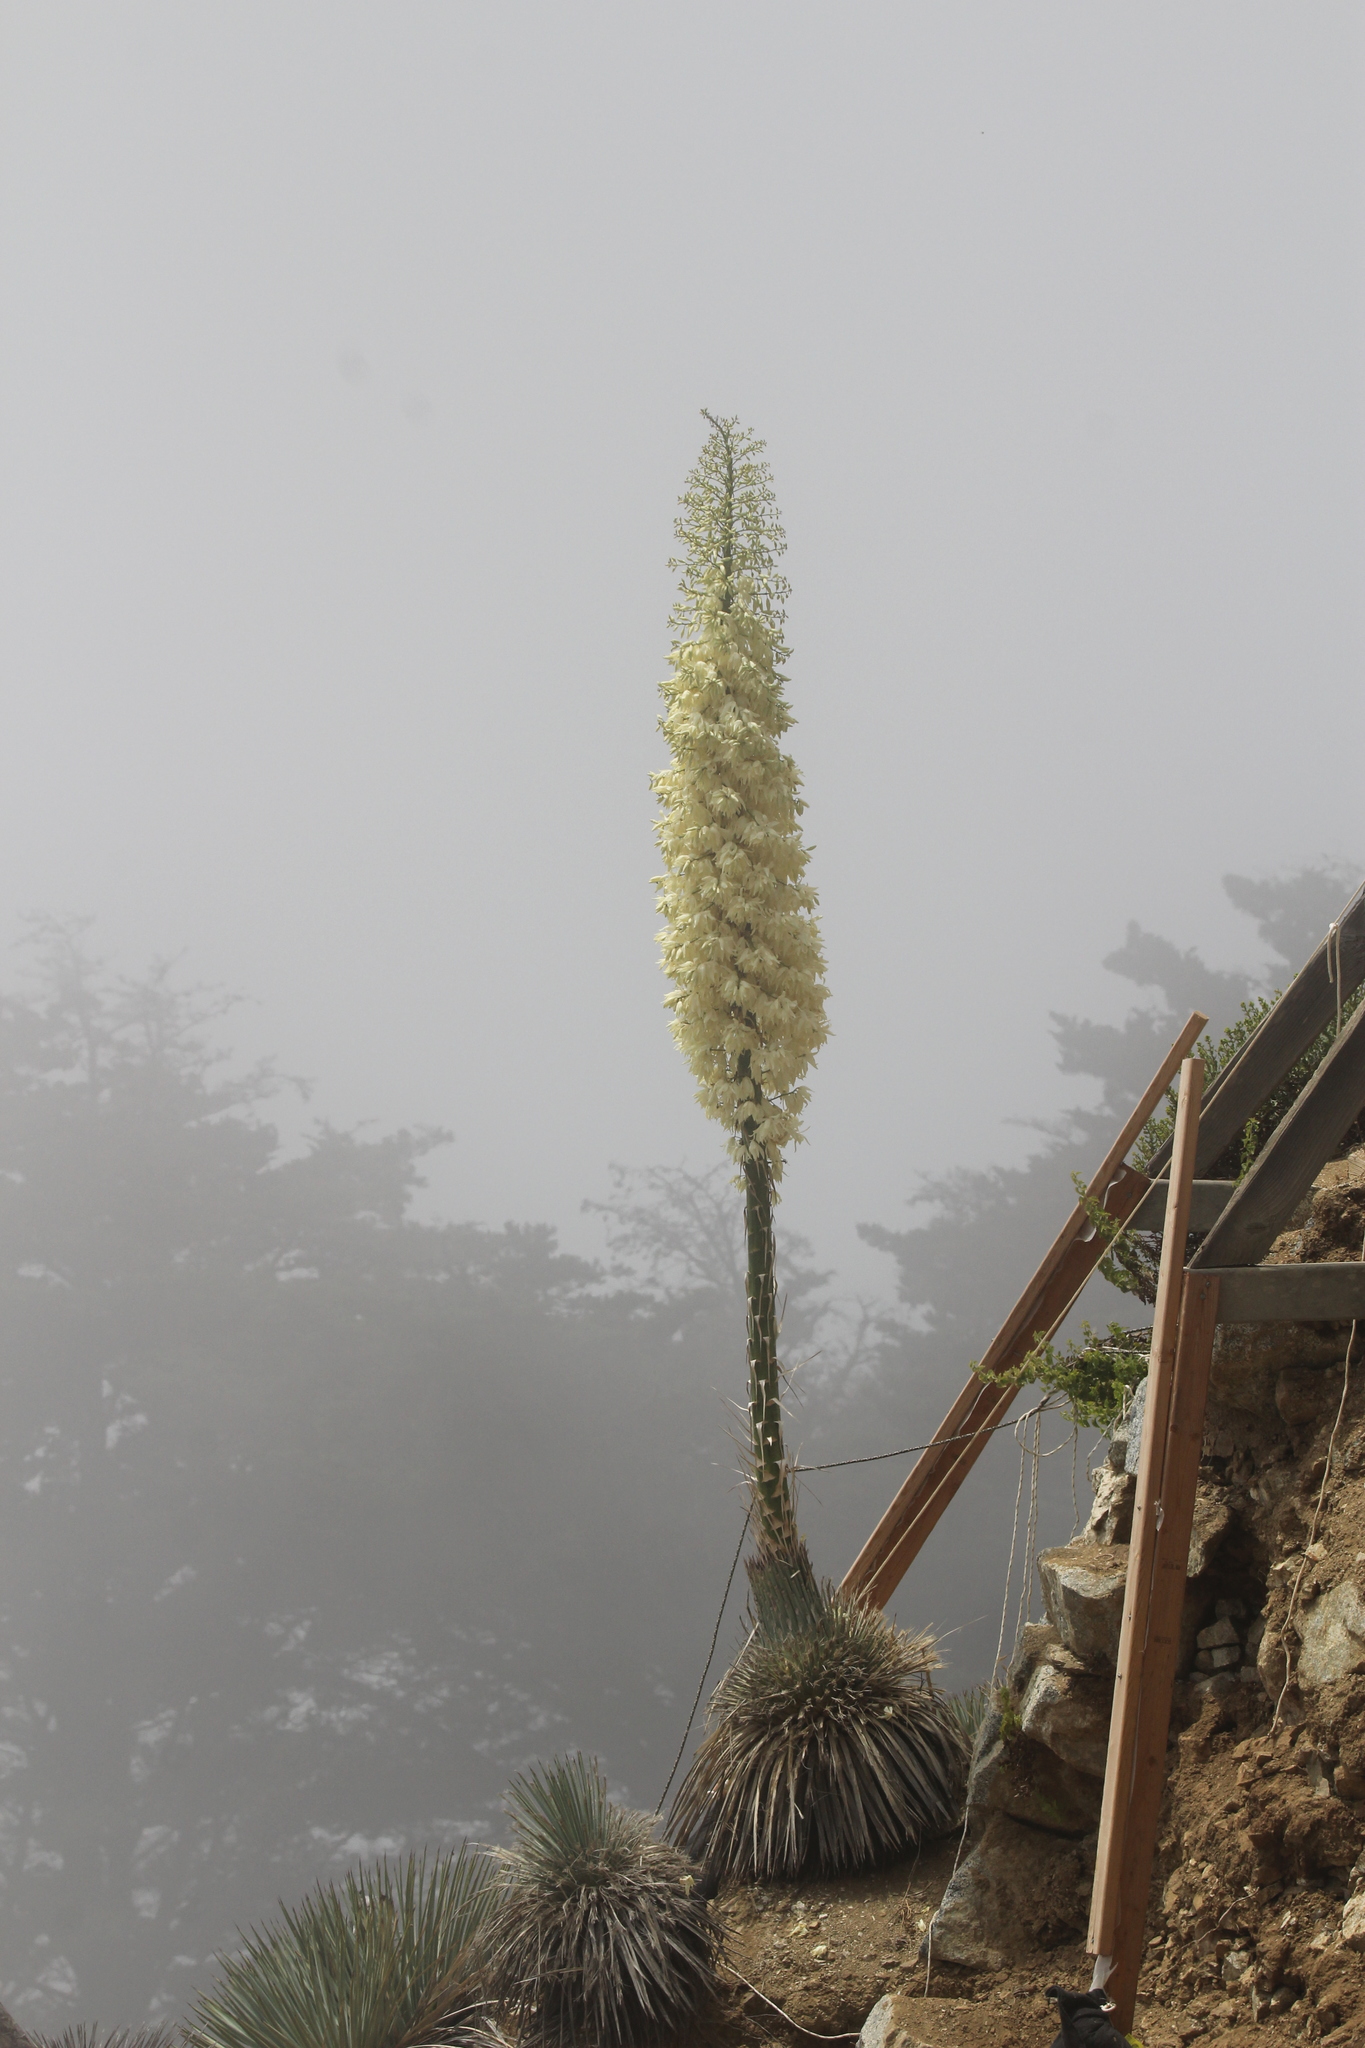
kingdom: Plantae
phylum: Tracheophyta
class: Liliopsida
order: Asparagales
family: Asparagaceae
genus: Hesperoyucca
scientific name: Hesperoyucca whipplei
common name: Our lord's-candle
